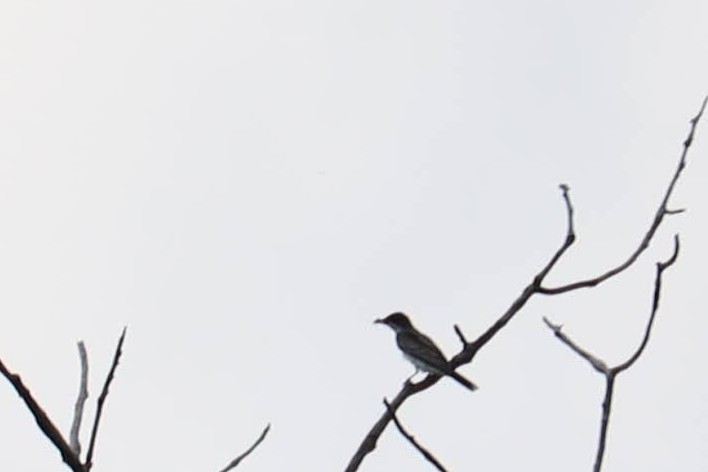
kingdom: Animalia
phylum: Chordata
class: Aves
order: Passeriformes
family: Tyrannidae
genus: Tyrannus
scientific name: Tyrannus tyrannus
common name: Eastern kingbird
